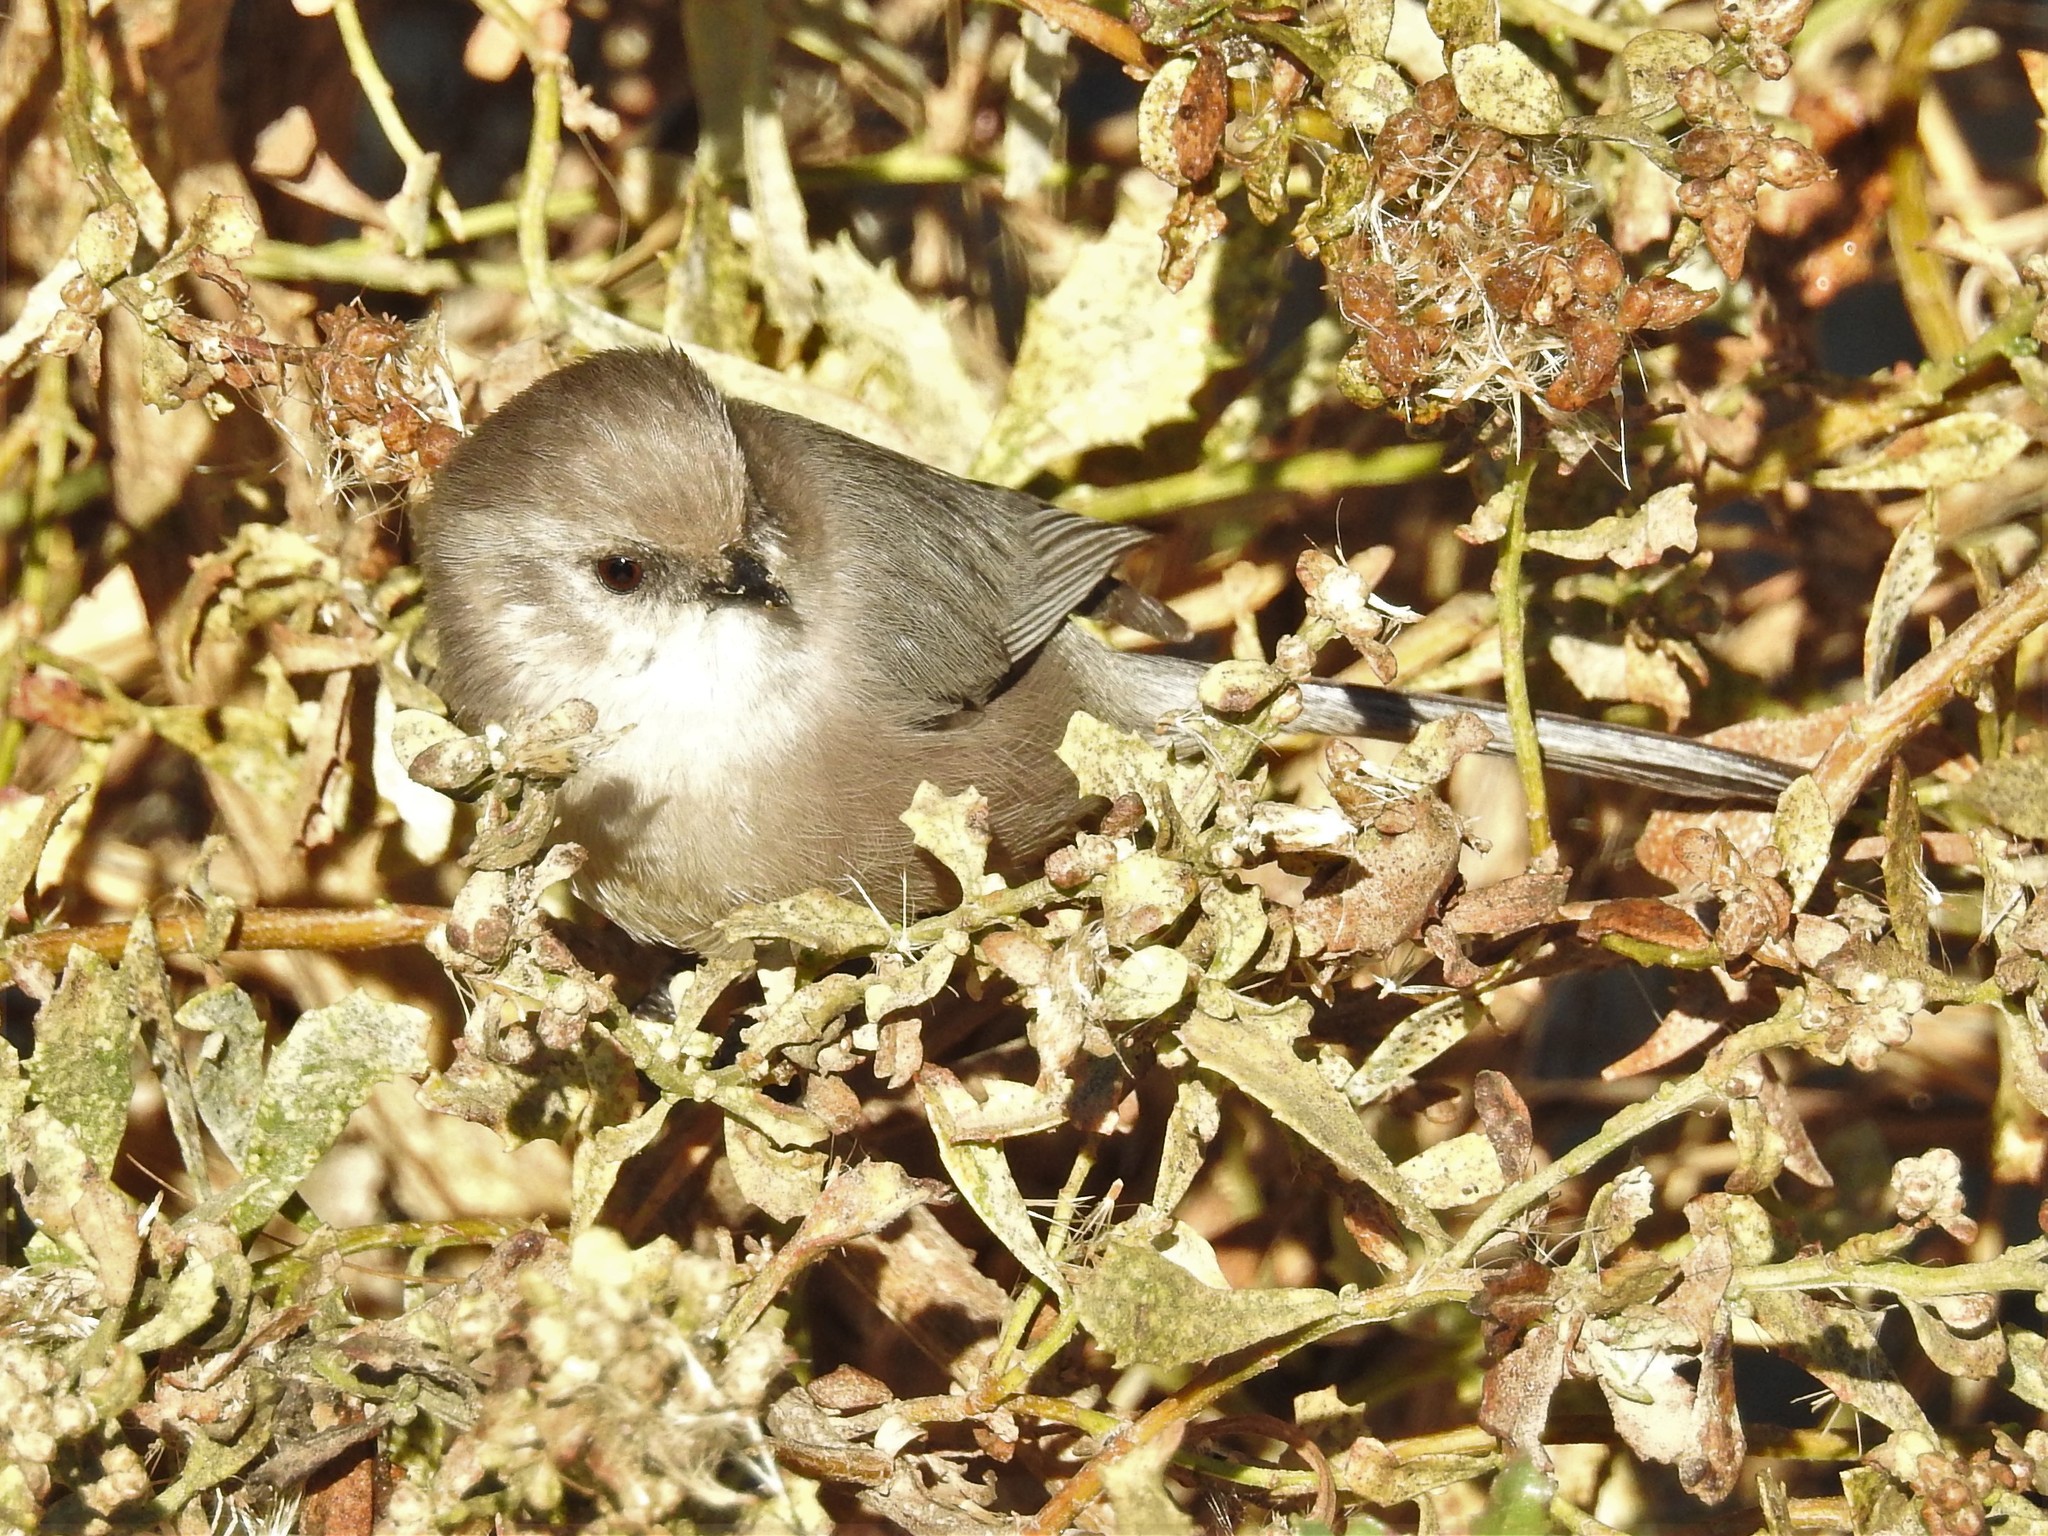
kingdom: Animalia
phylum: Chordata
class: Aves
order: Passeriformes
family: Aegithalidae
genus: Psaltriparus
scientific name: Psaltriparus minimus
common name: American bushtit
